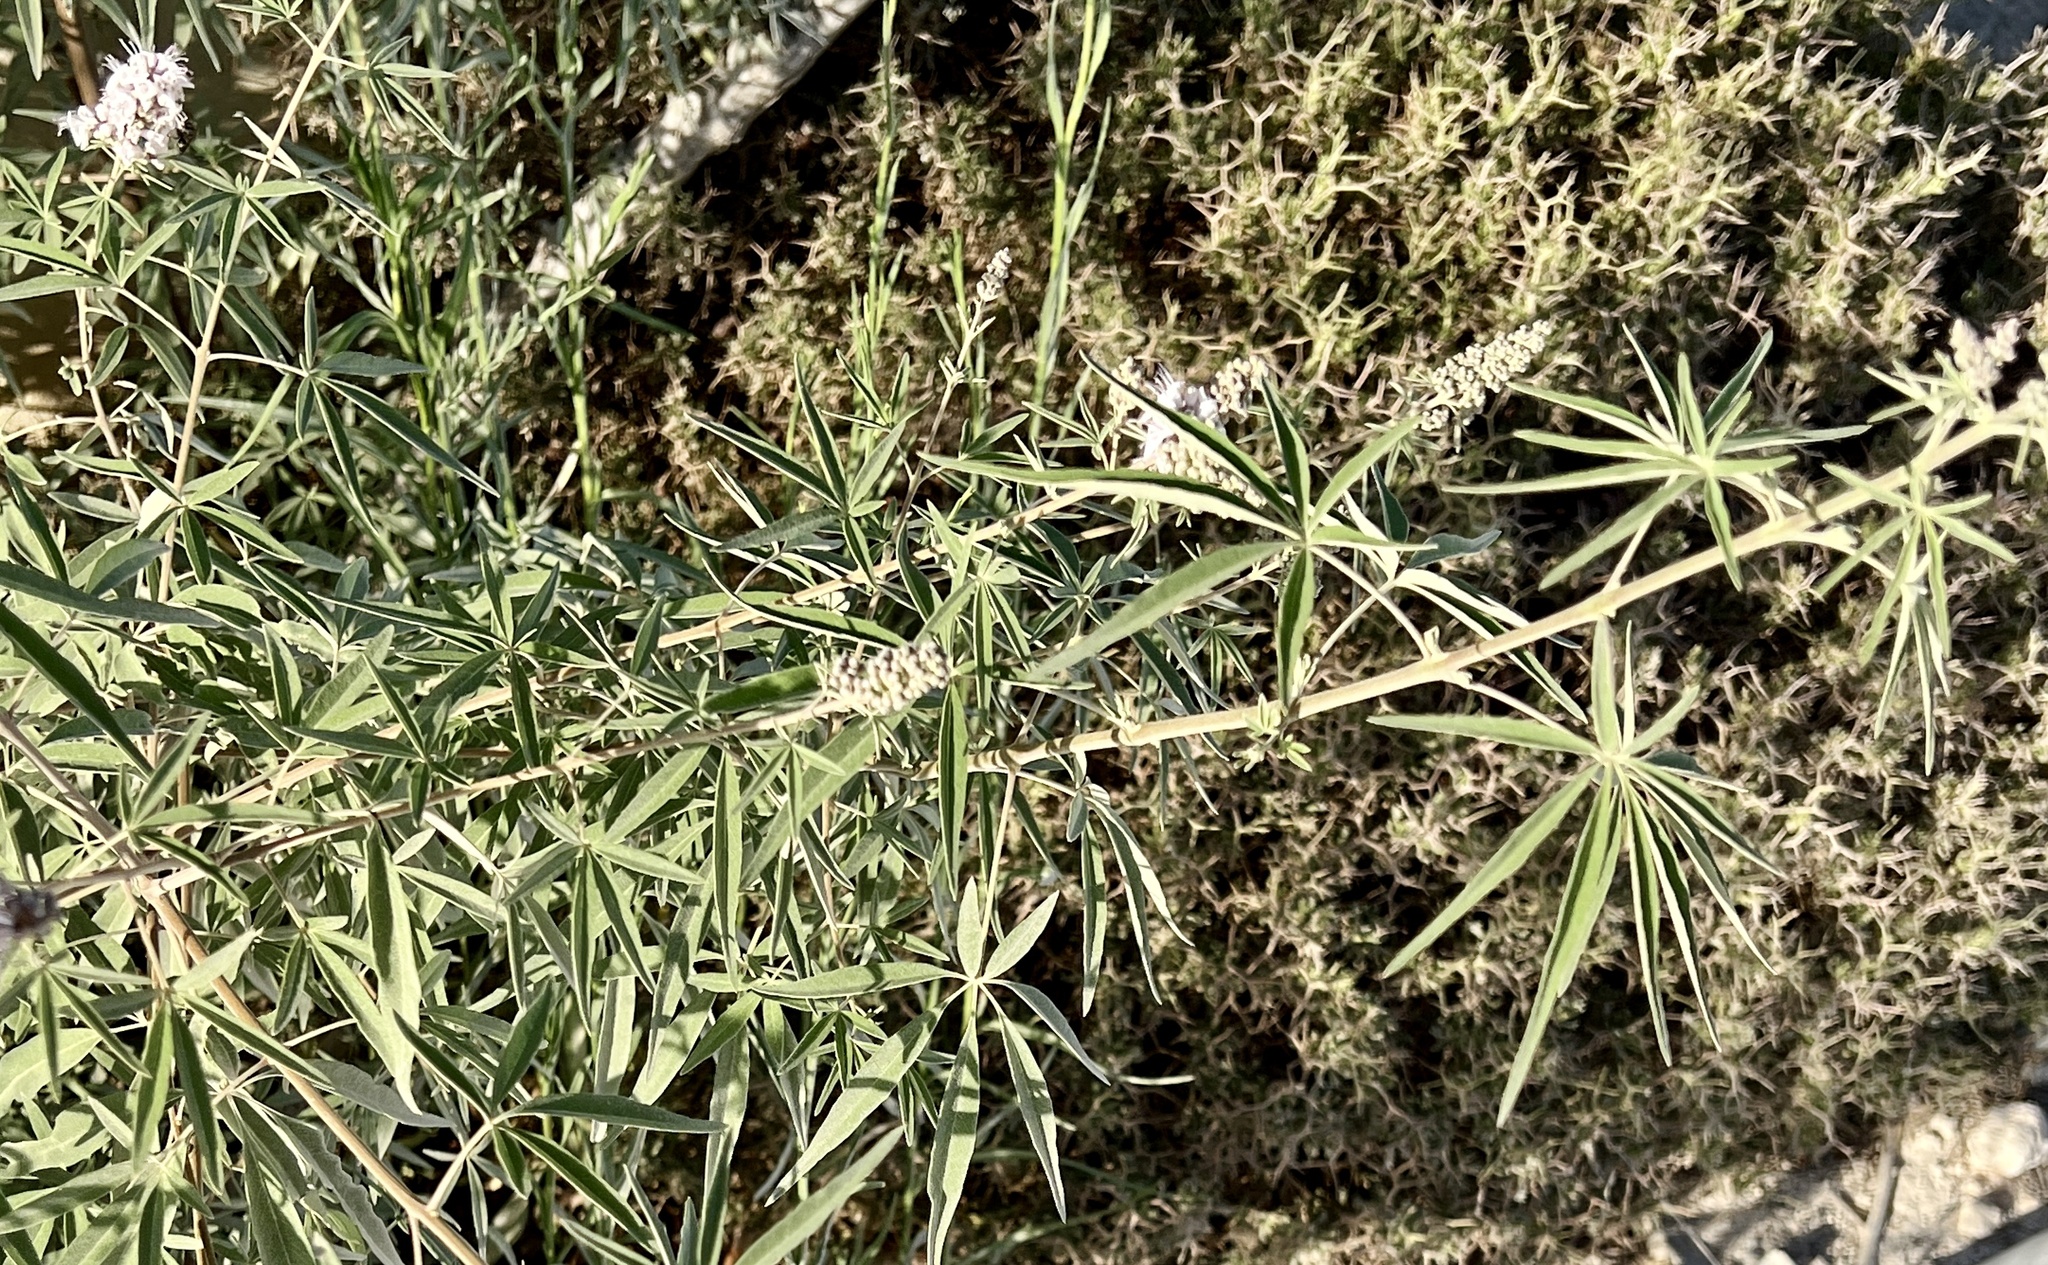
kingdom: Plantae
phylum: Tracheophyta
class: Magnoliopsida
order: Lamiales
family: Lamiaceae
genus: Vitex
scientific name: Vitex agnus-castus
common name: Chasteberry
